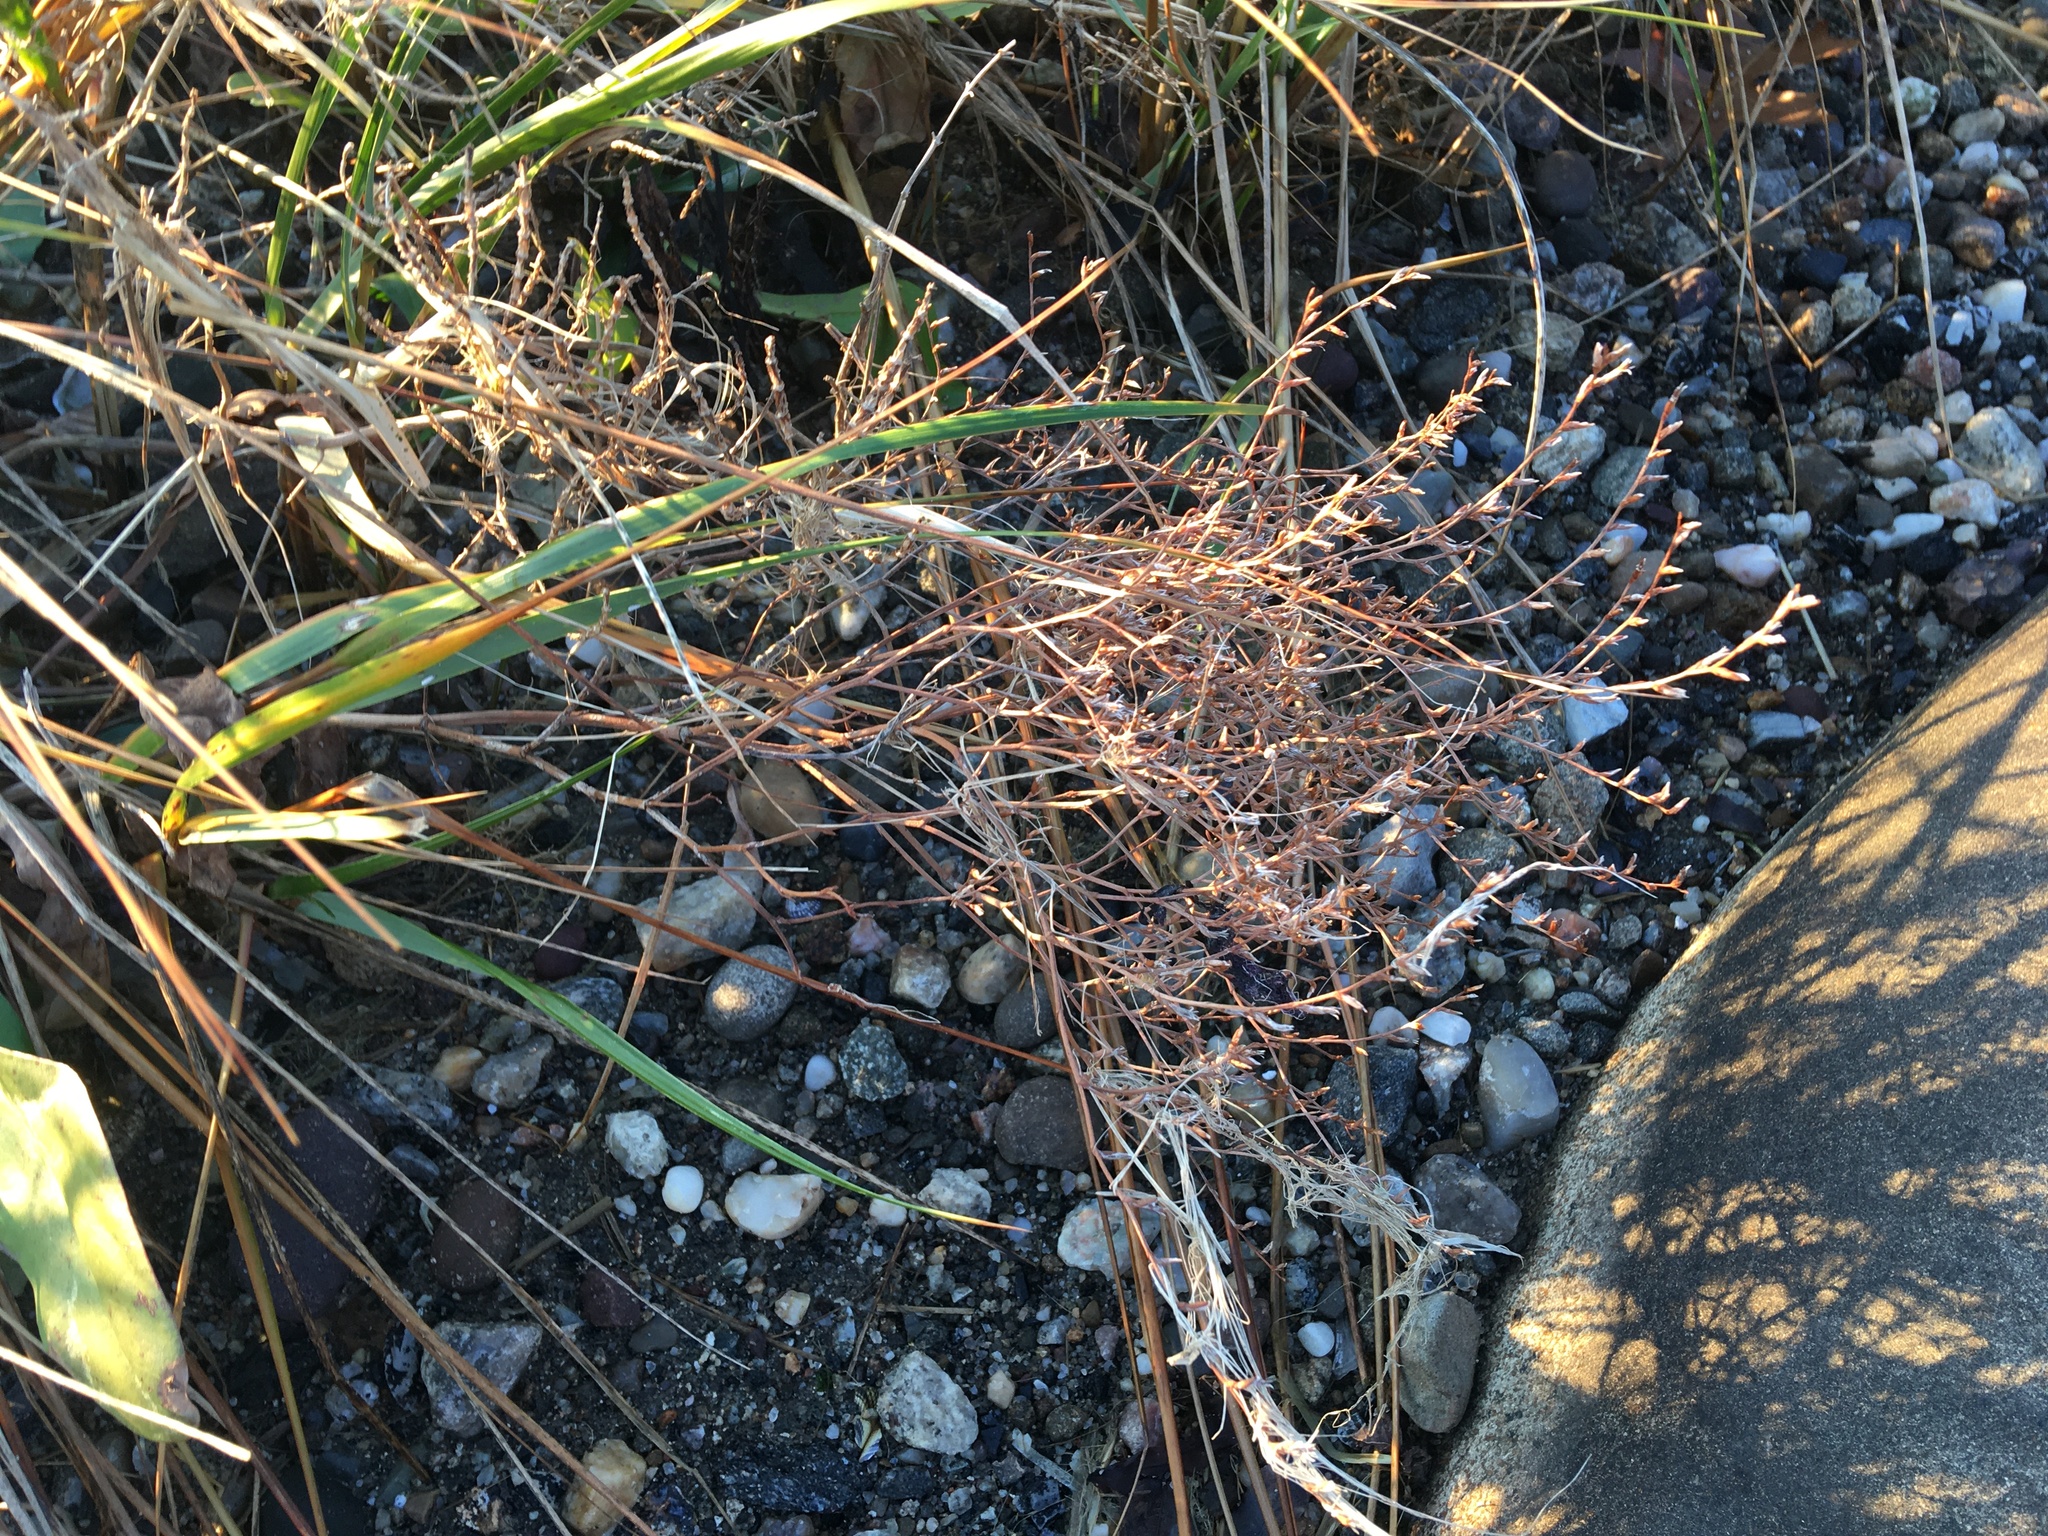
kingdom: Plantae
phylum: Tracheophyta
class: Magnoliopsida
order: Caryophyllales
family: Plumbaginaceae
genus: Limonium
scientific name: Limonium carolinianum
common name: Carolina sea lavender
